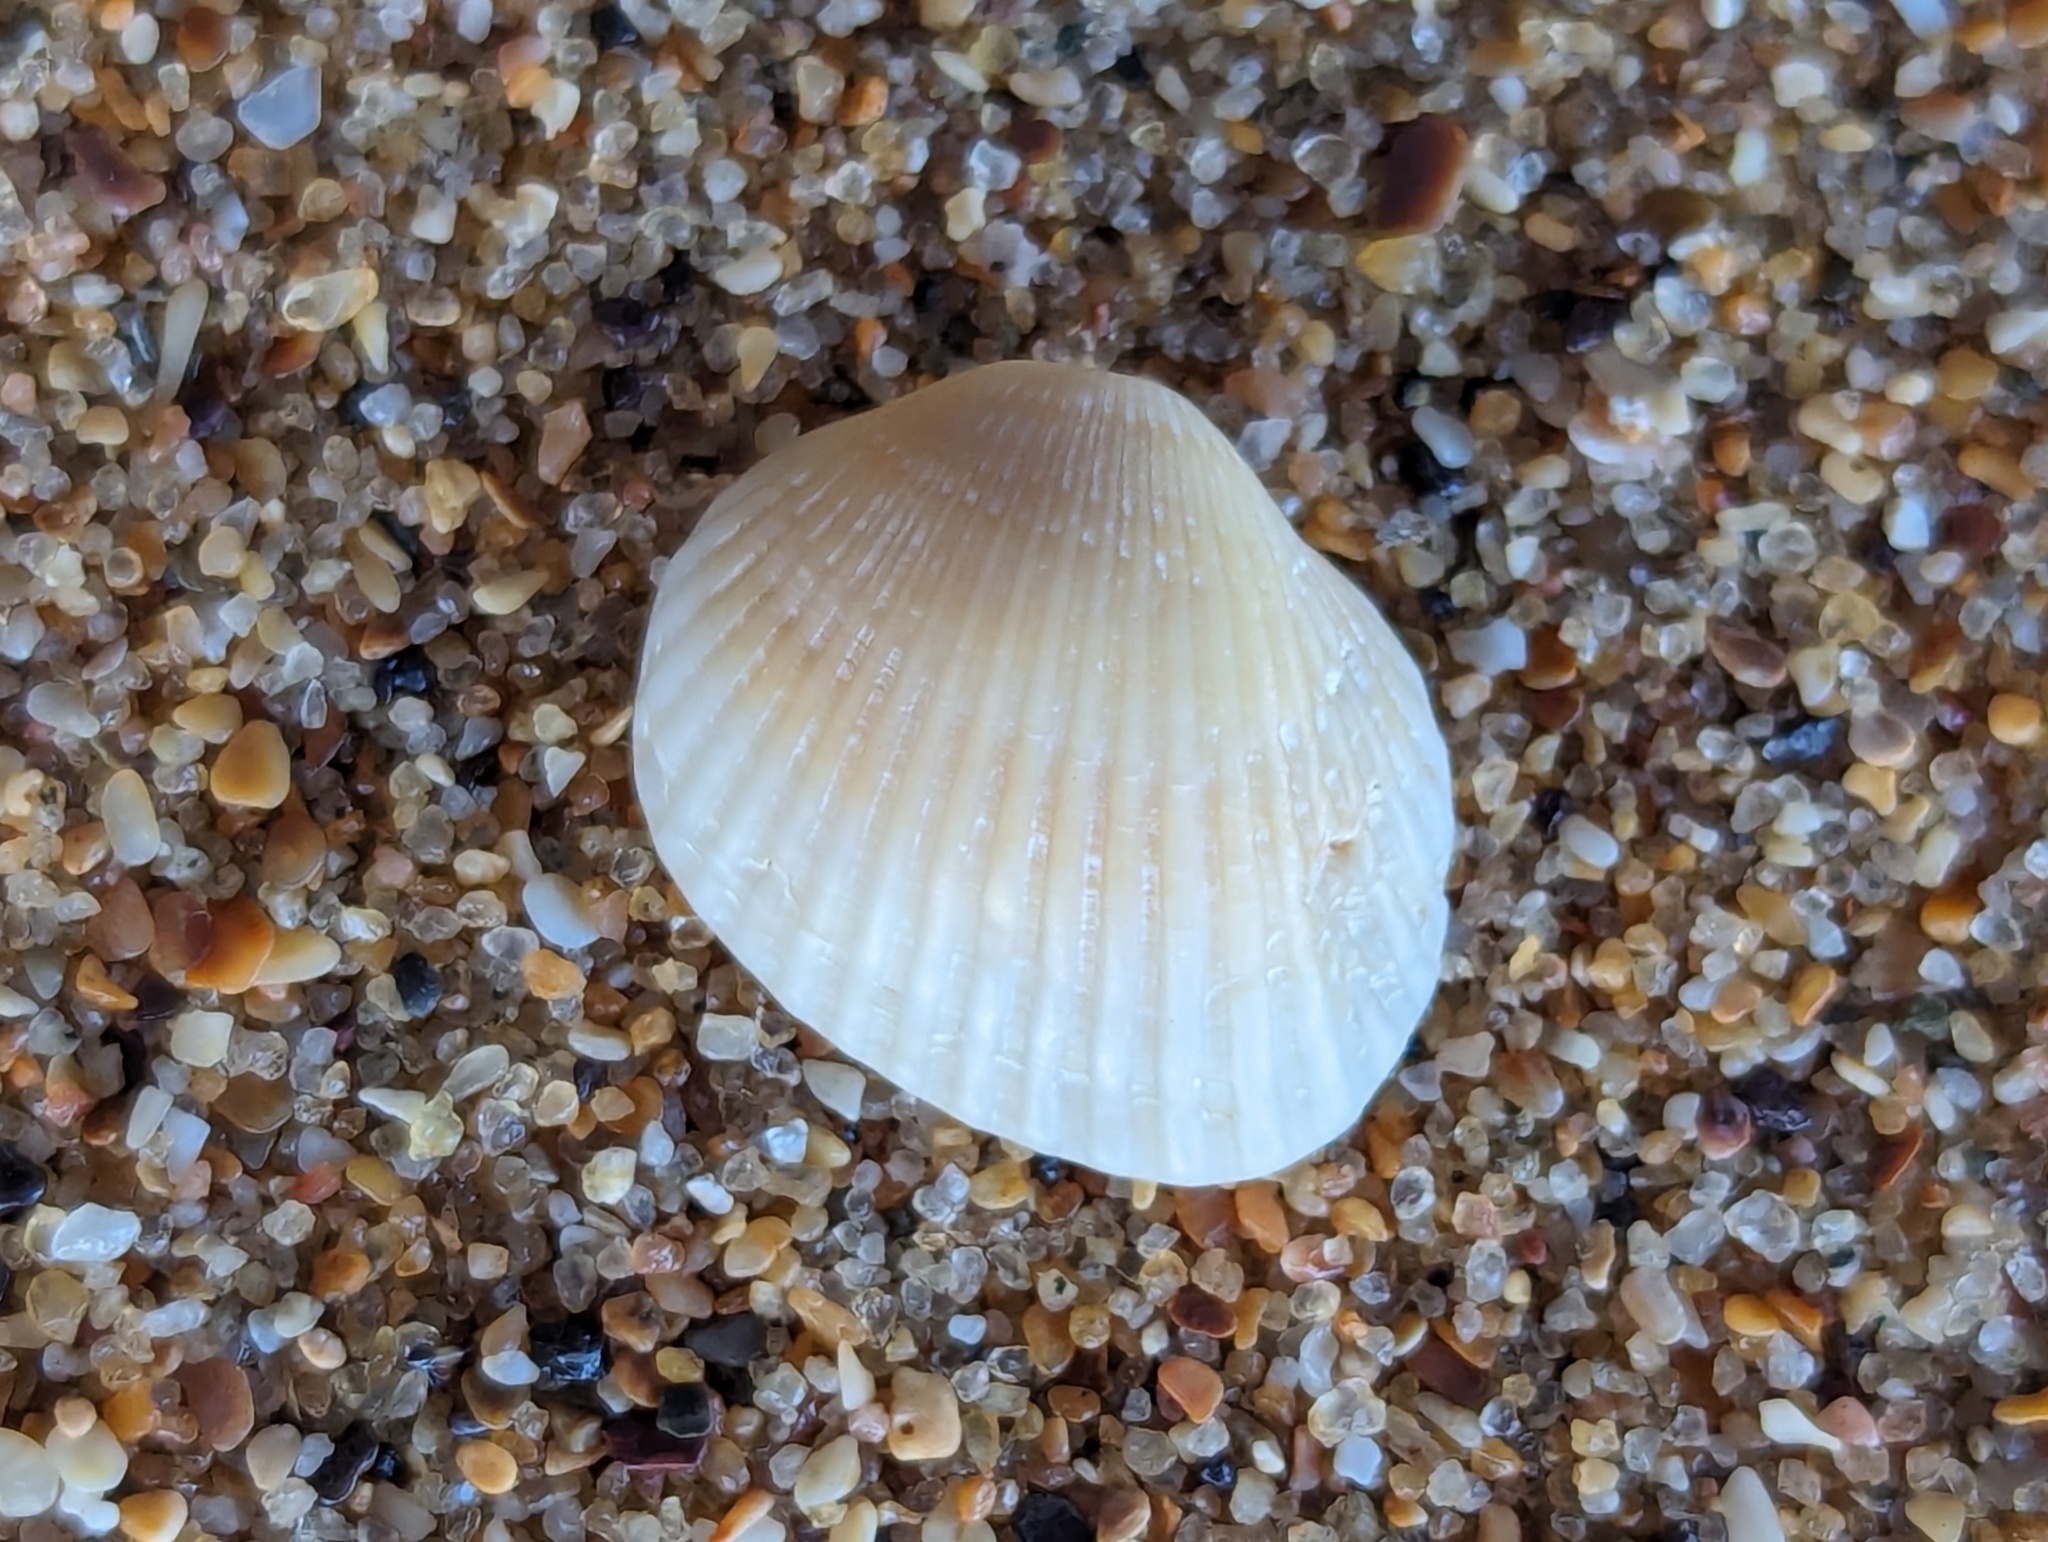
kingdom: Animalia
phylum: Mollusca
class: Bivalvia
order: Arcida
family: Arcidae
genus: Anadara
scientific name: Anadara trapezia
